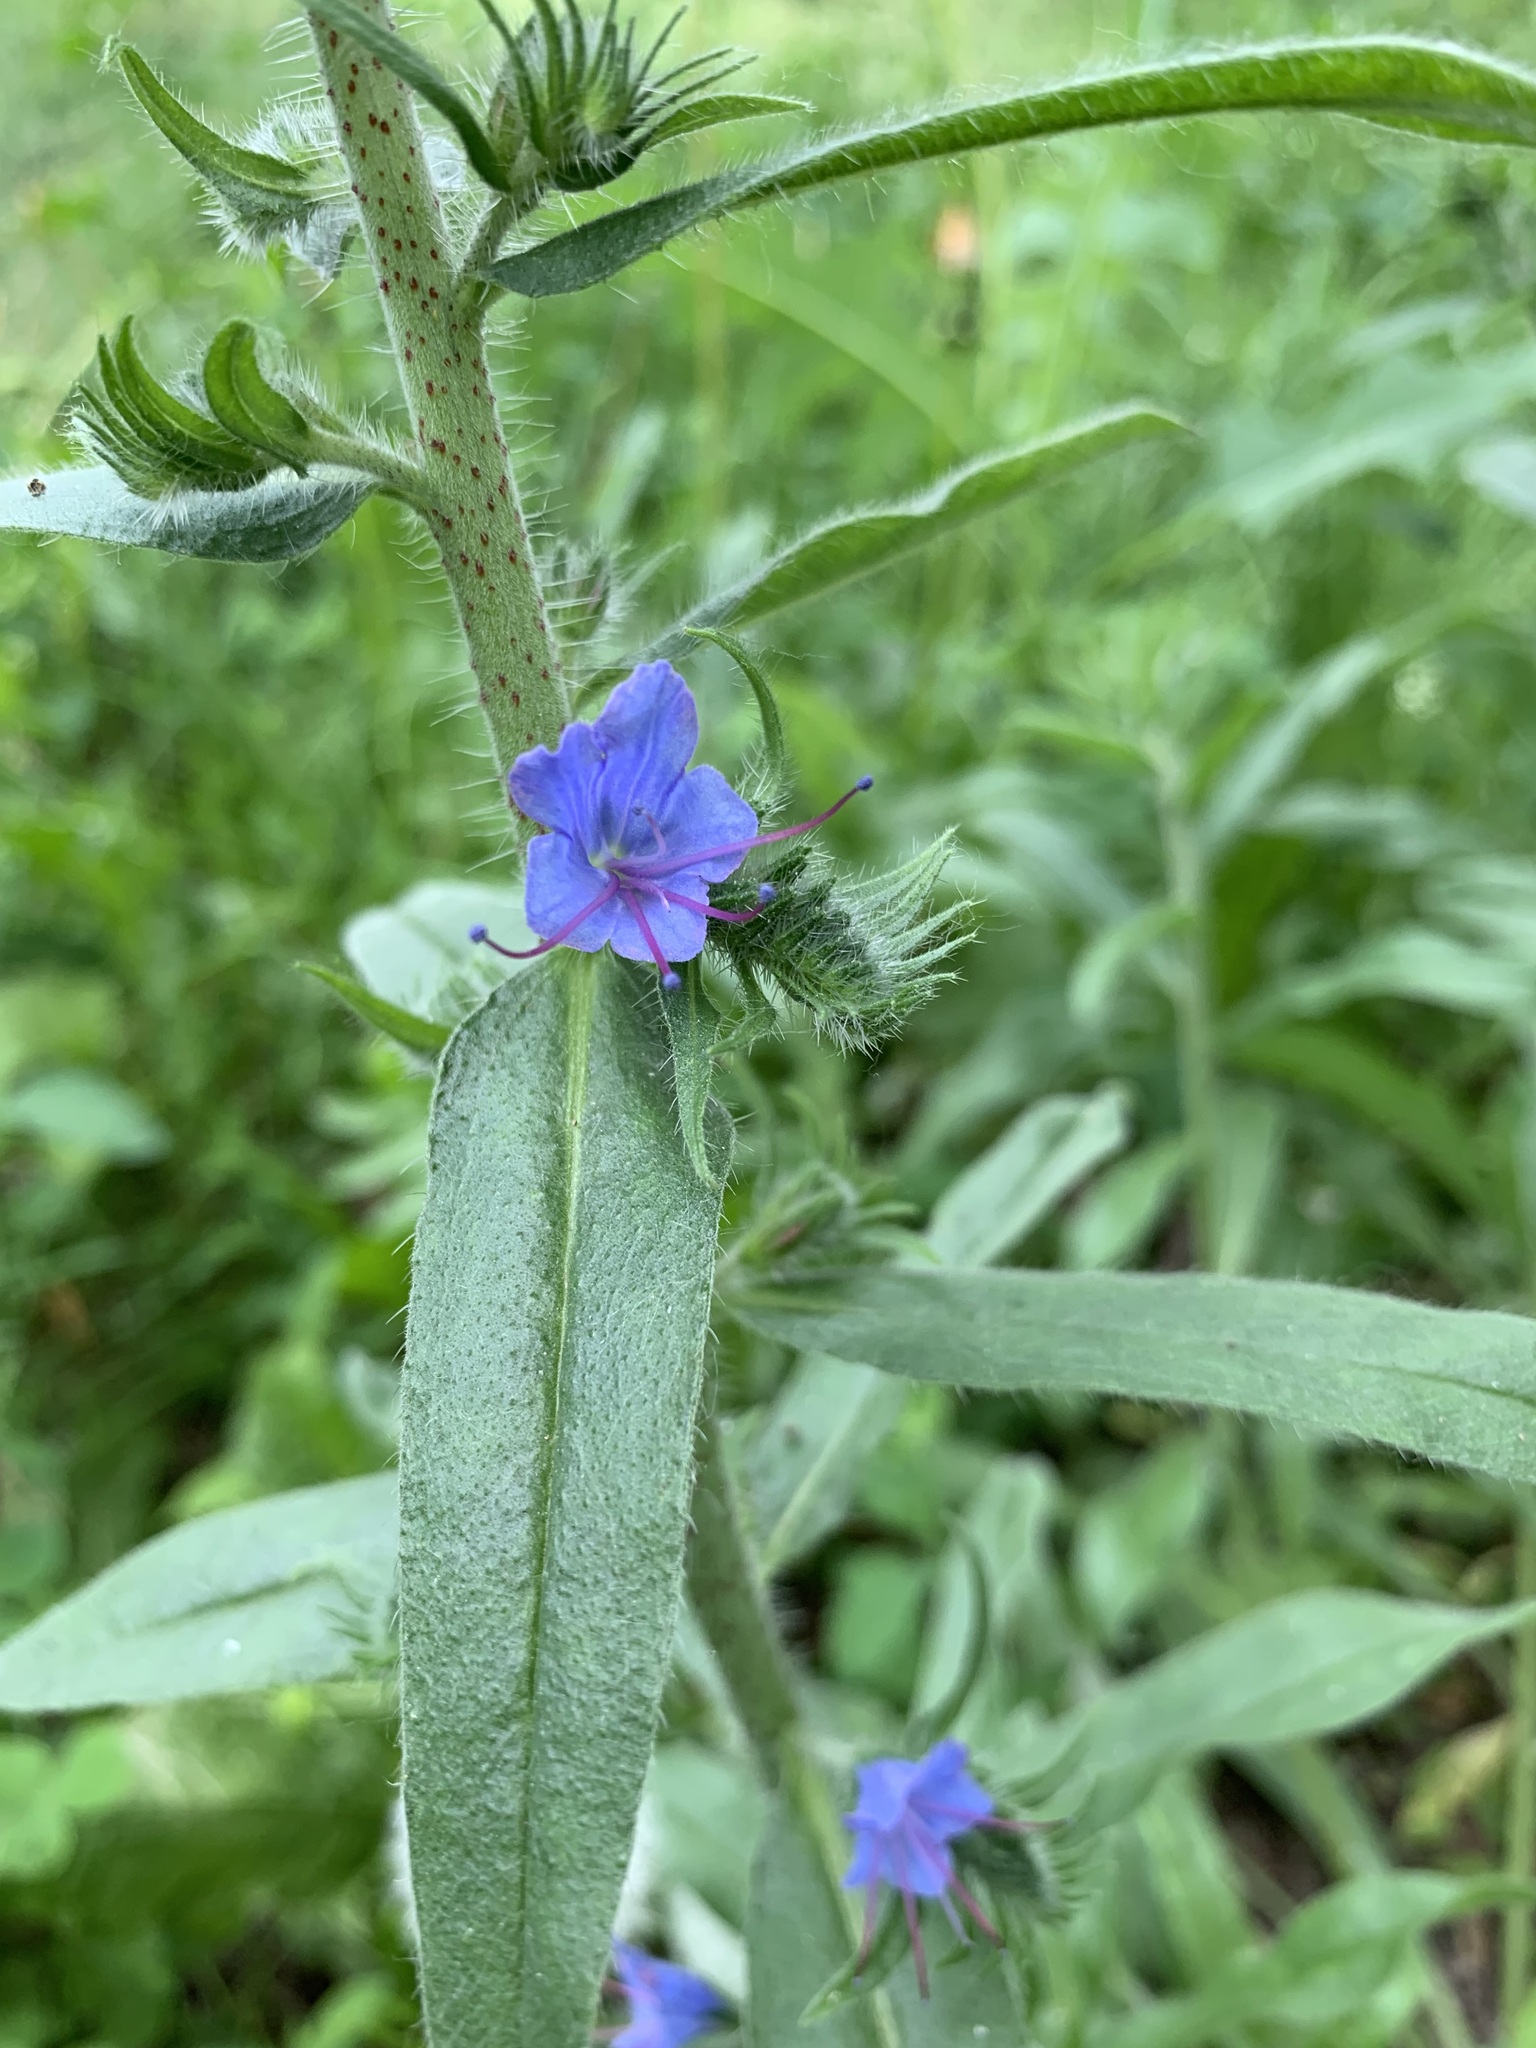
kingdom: Plantae
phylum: Tracheophyta
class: Magnoliopsida
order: Boraginales
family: Boraginaceae
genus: Echium
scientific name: Echium vulgare
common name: Common viper's bugloss
